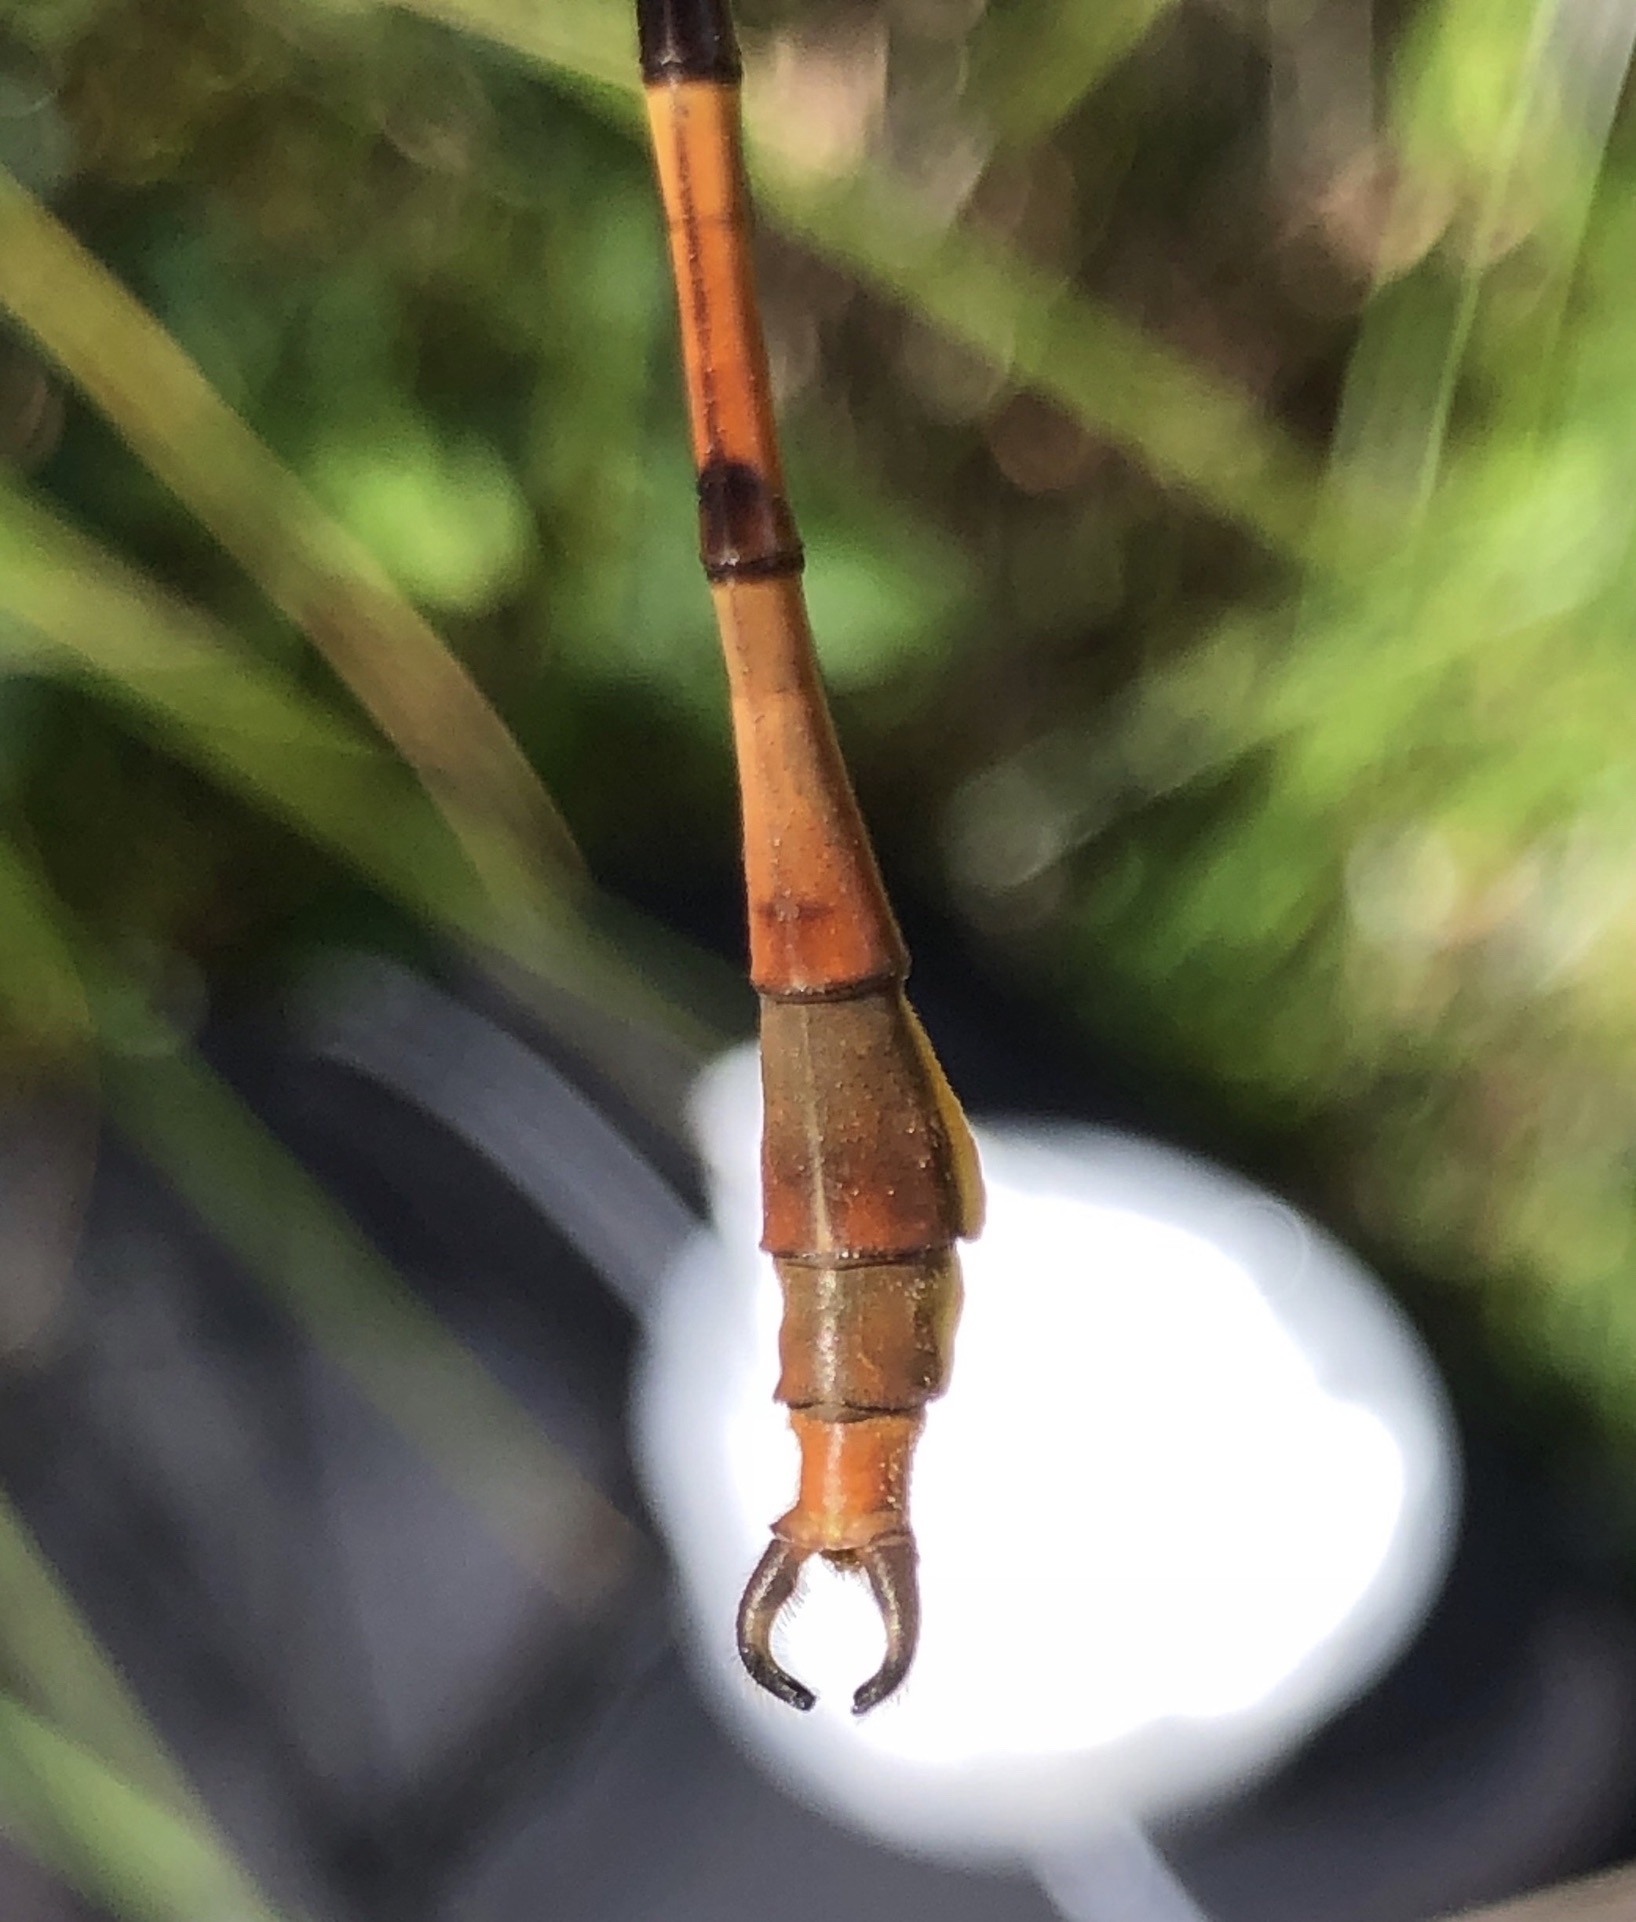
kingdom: Animalia
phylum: Arthropoda
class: Insecta
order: Odonata
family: Gomphidae
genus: Aphylla
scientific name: Aphylla williamsoni
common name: Two-striped forceptail
